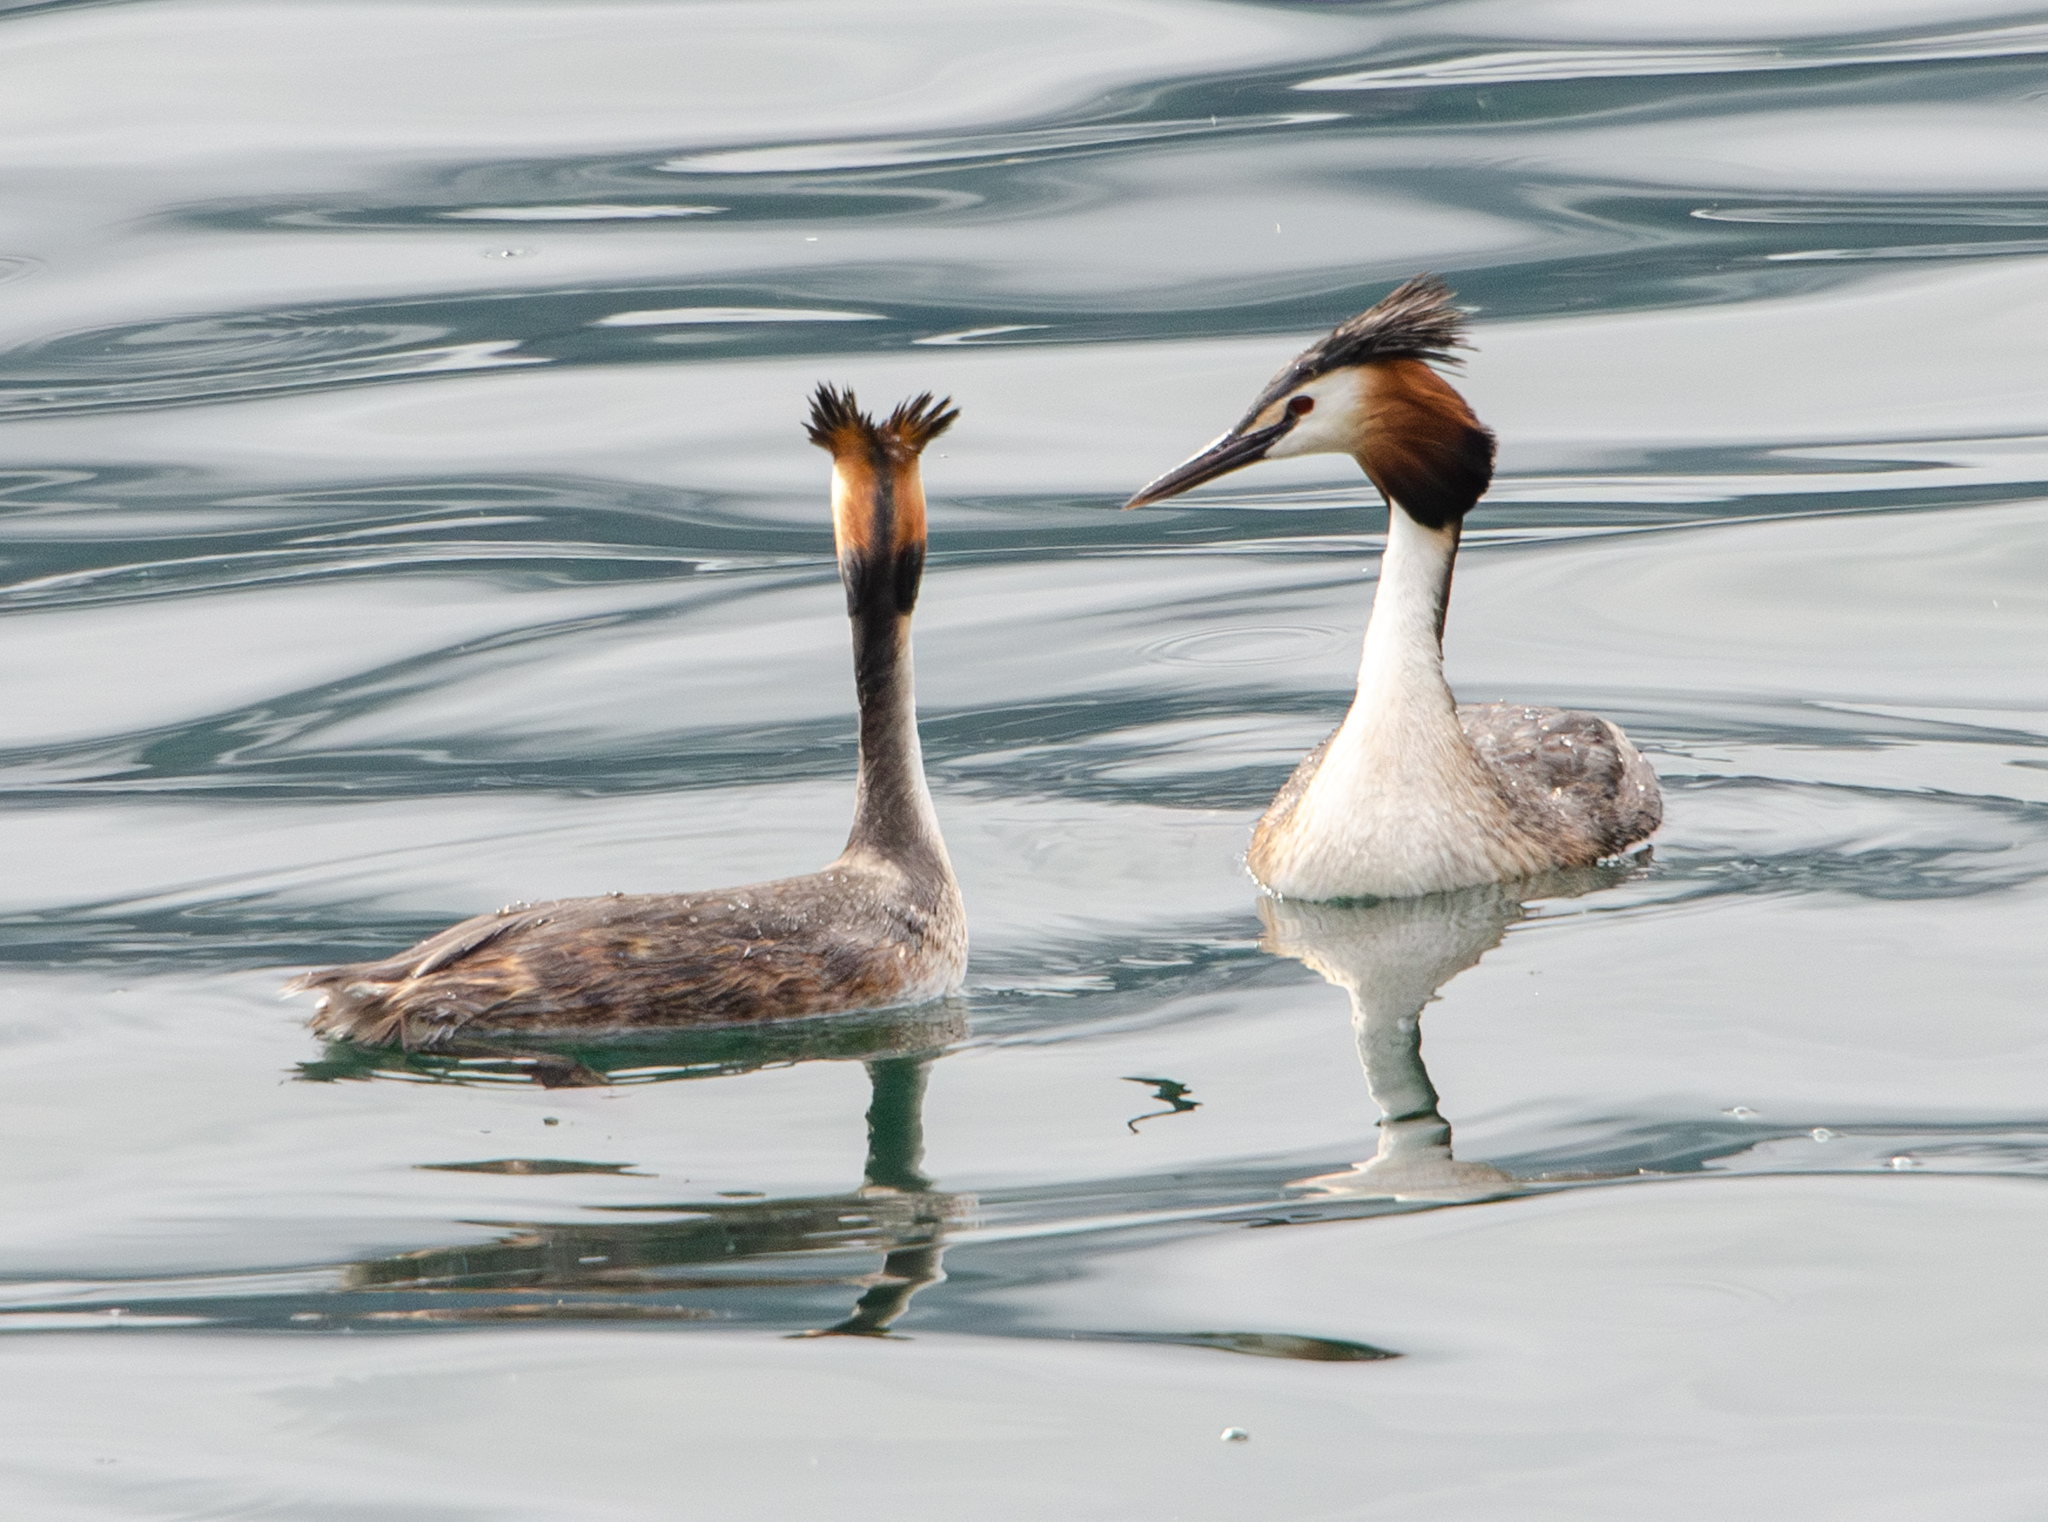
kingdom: Animalia
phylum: Chordata
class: Aves
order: Podicipediformes
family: Podicipedidae
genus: Podiceps
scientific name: Podiceps cristatus
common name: Great crested grebe
